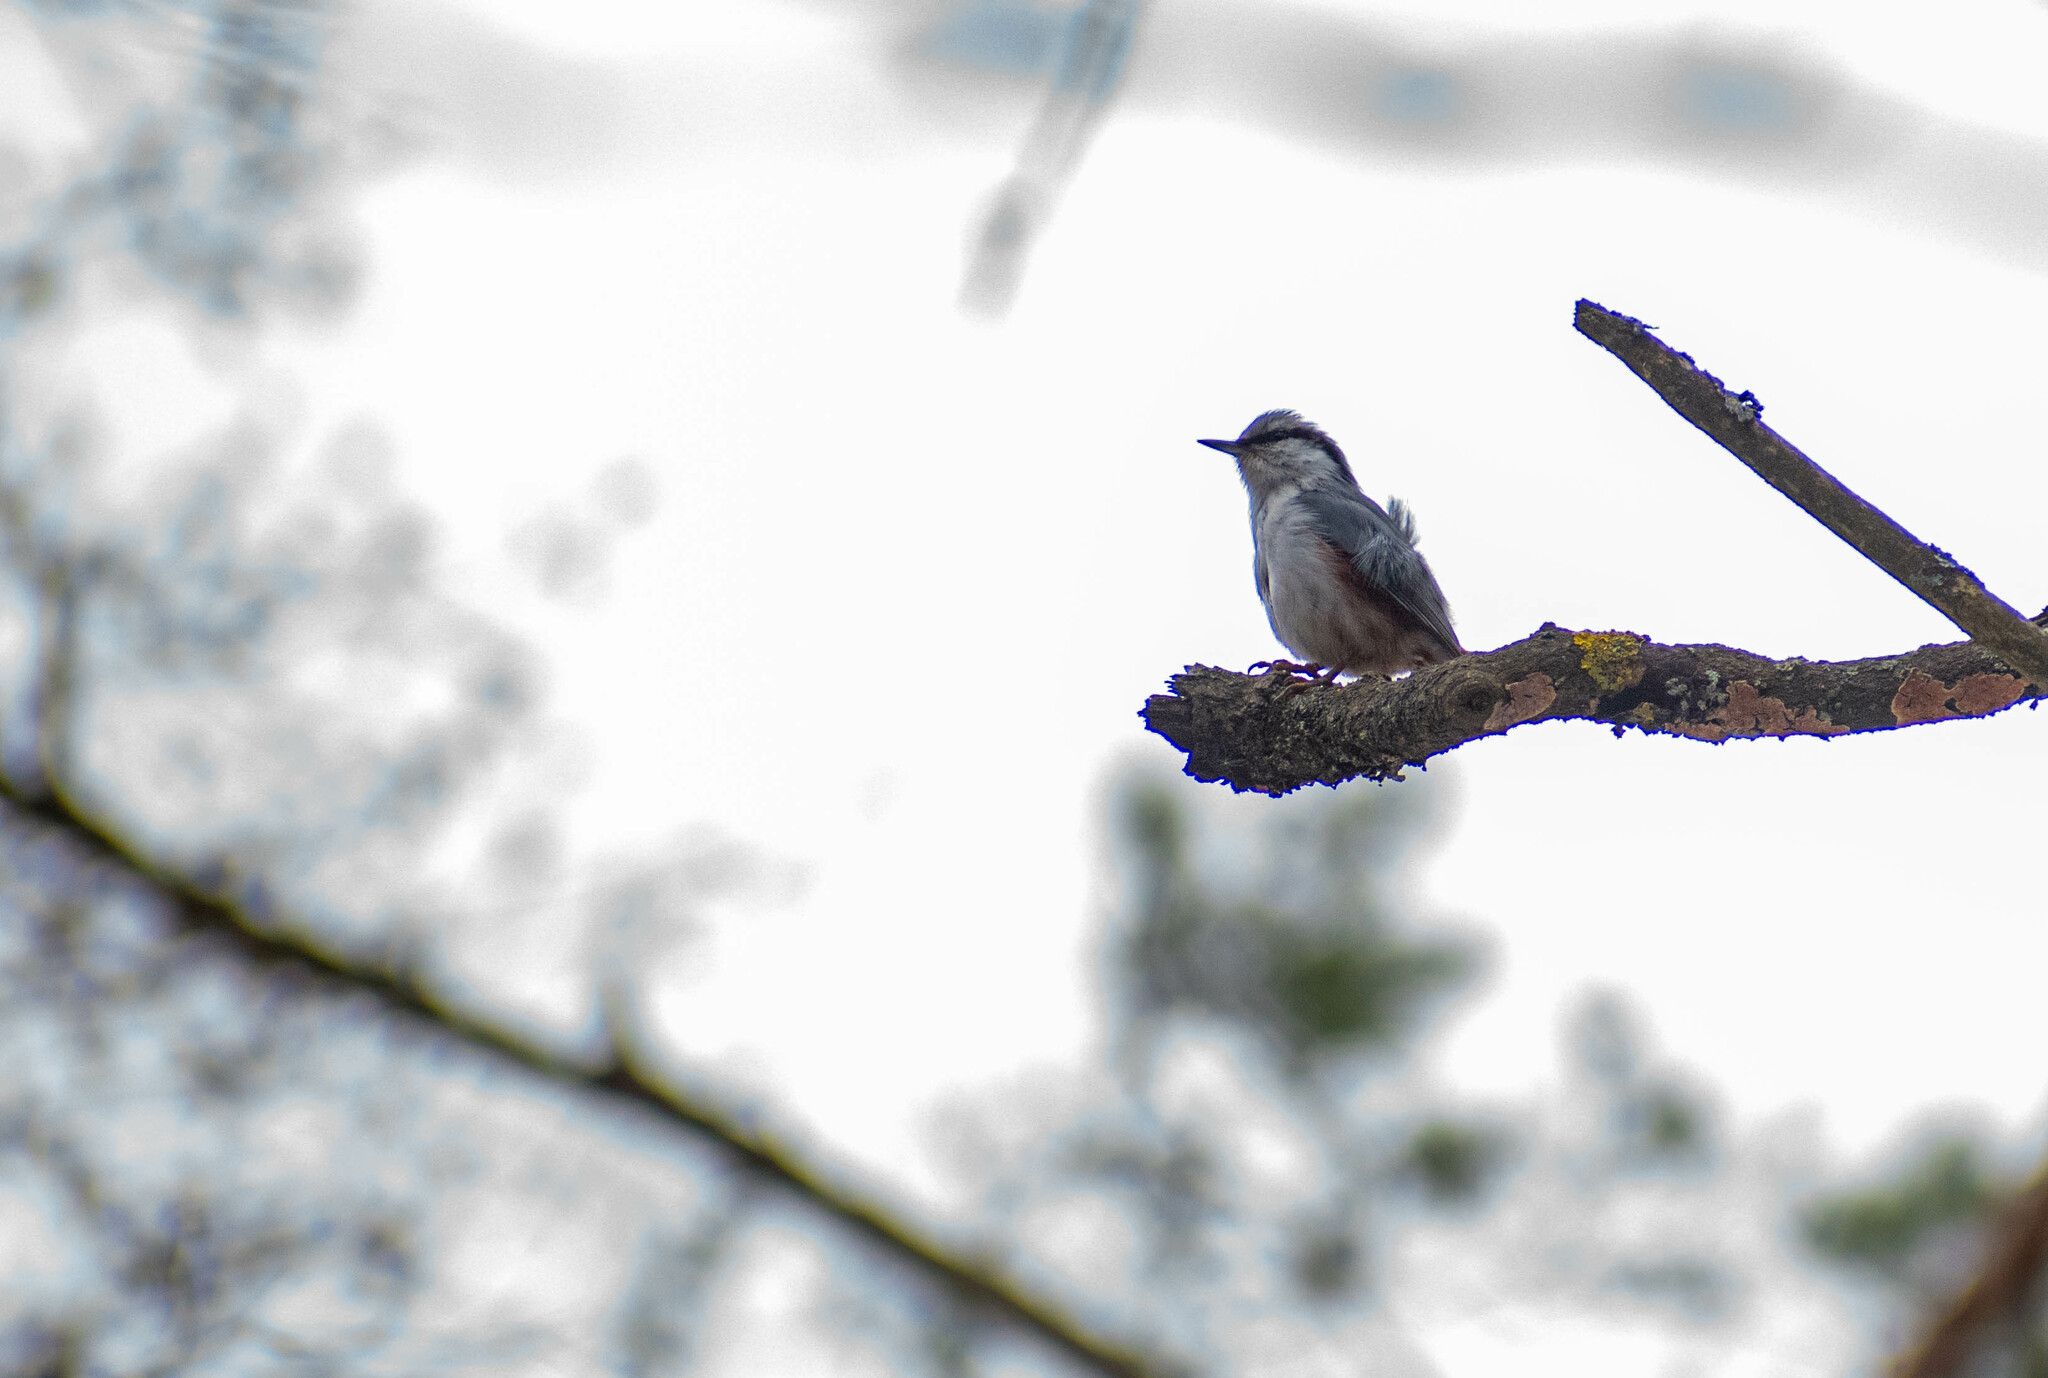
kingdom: Animalia
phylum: Chordata
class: Aves
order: Passeriformes
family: Sittidae
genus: Sitta
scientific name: Sitta europaea
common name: Eurasian nuthatch
